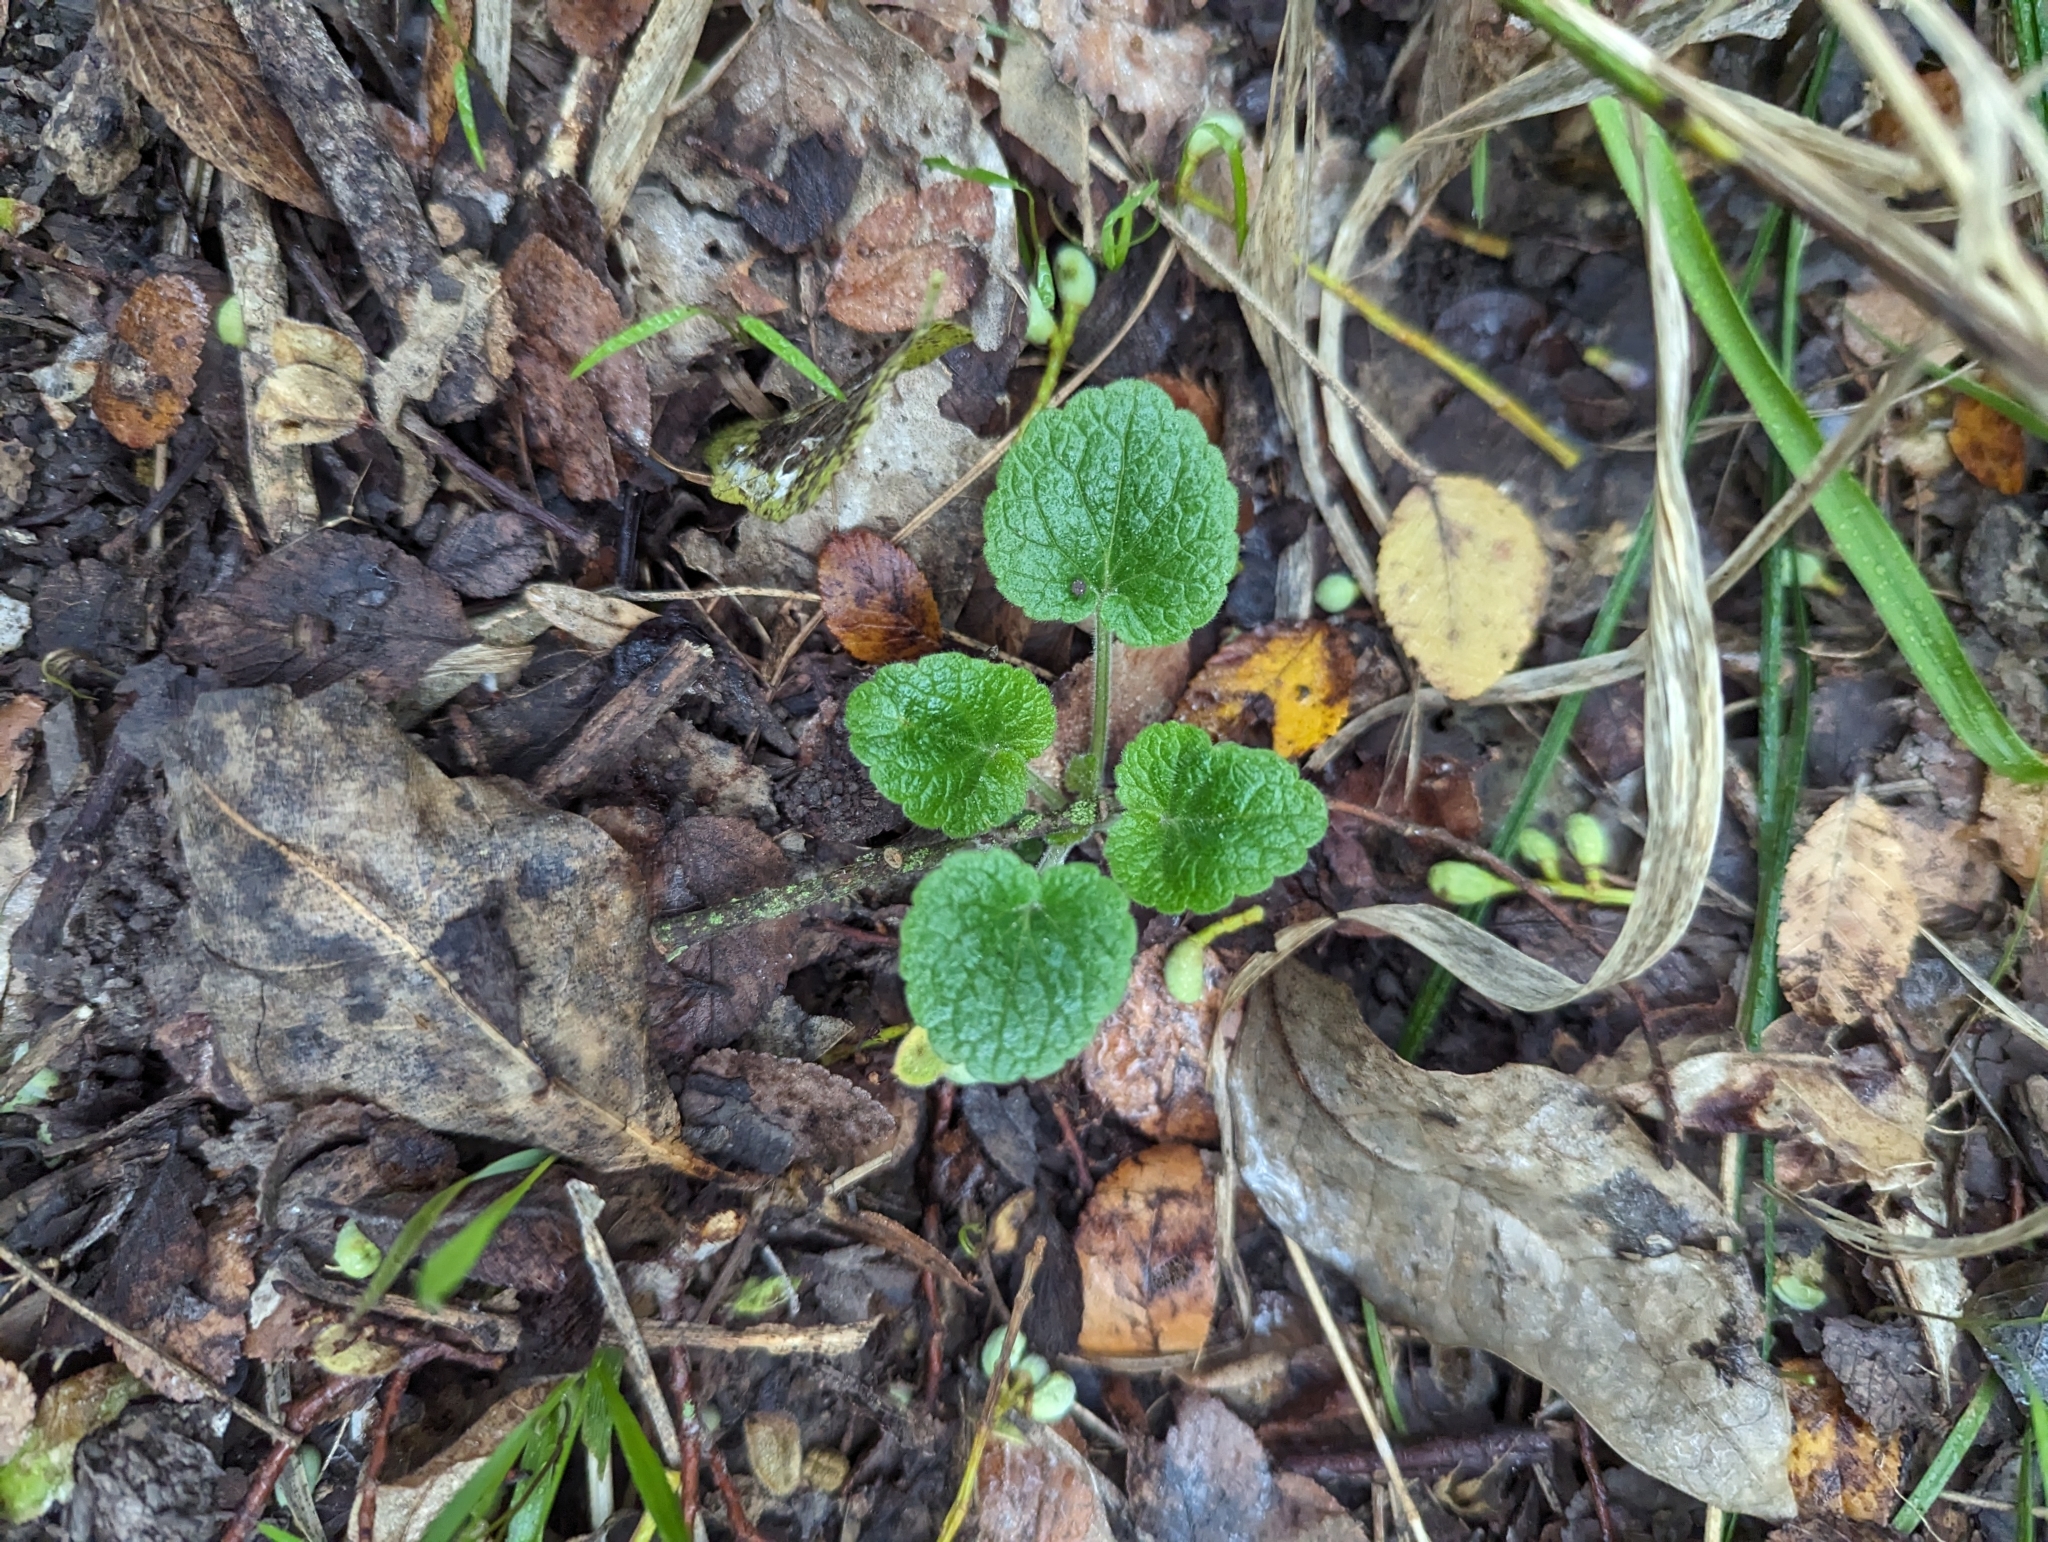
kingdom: Plantae
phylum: Tracheophyta
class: Magnoliopsida
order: Lamiales
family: Lamiaceae
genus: Scutellaria
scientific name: Scutellaria ovata
